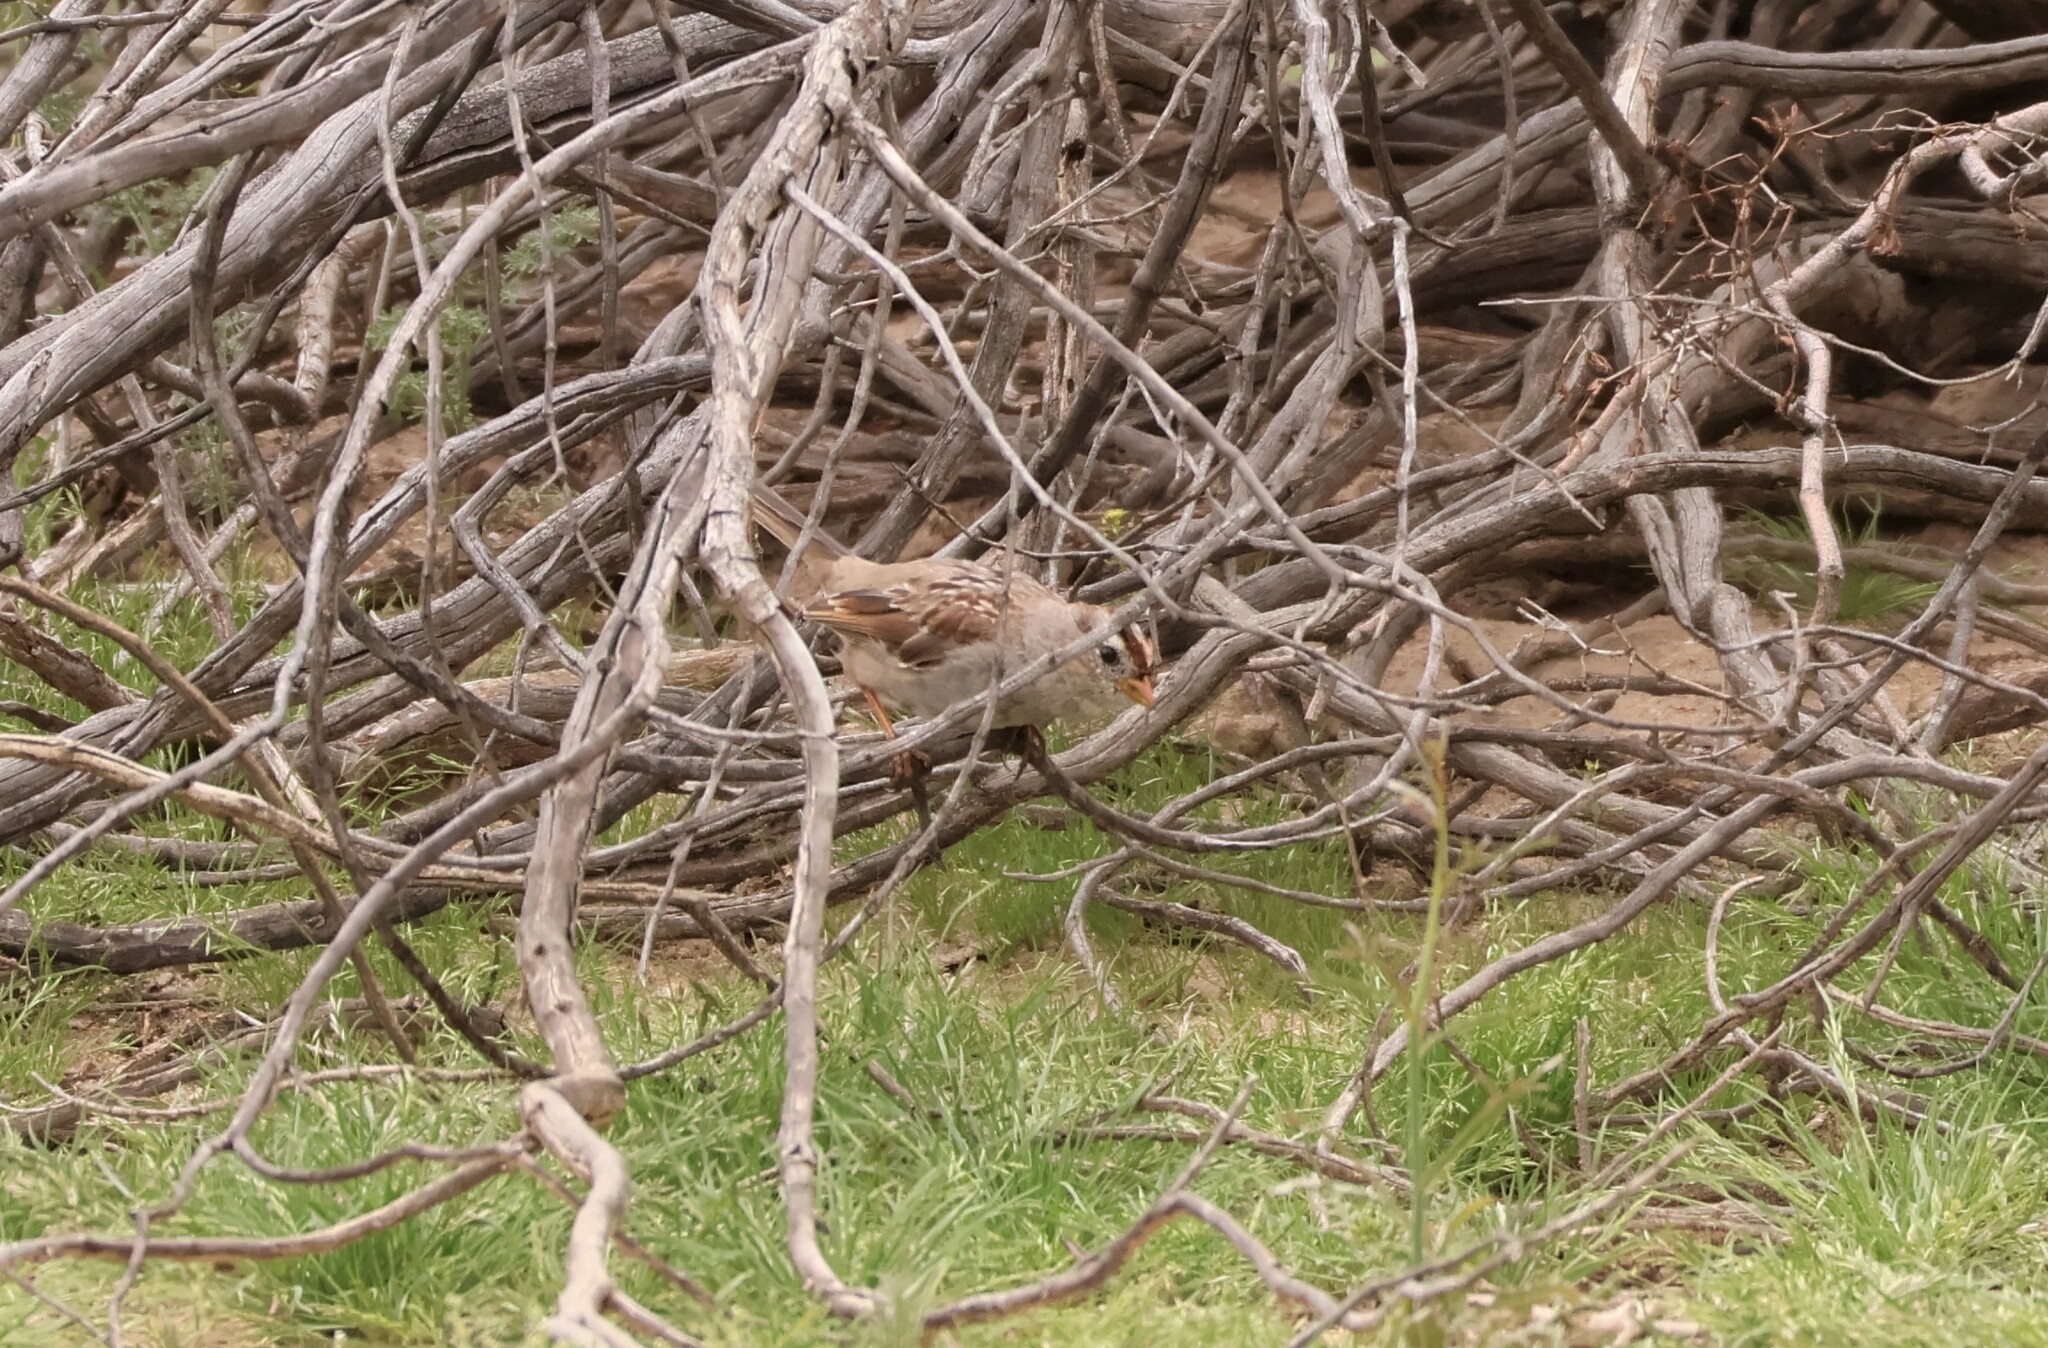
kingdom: Animalia
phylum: Chordata
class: Aves
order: Passeriformes
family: Passerellidae
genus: Zonotrichia
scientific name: Zonotrichia leucophrys
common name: White-crowned sparrow
